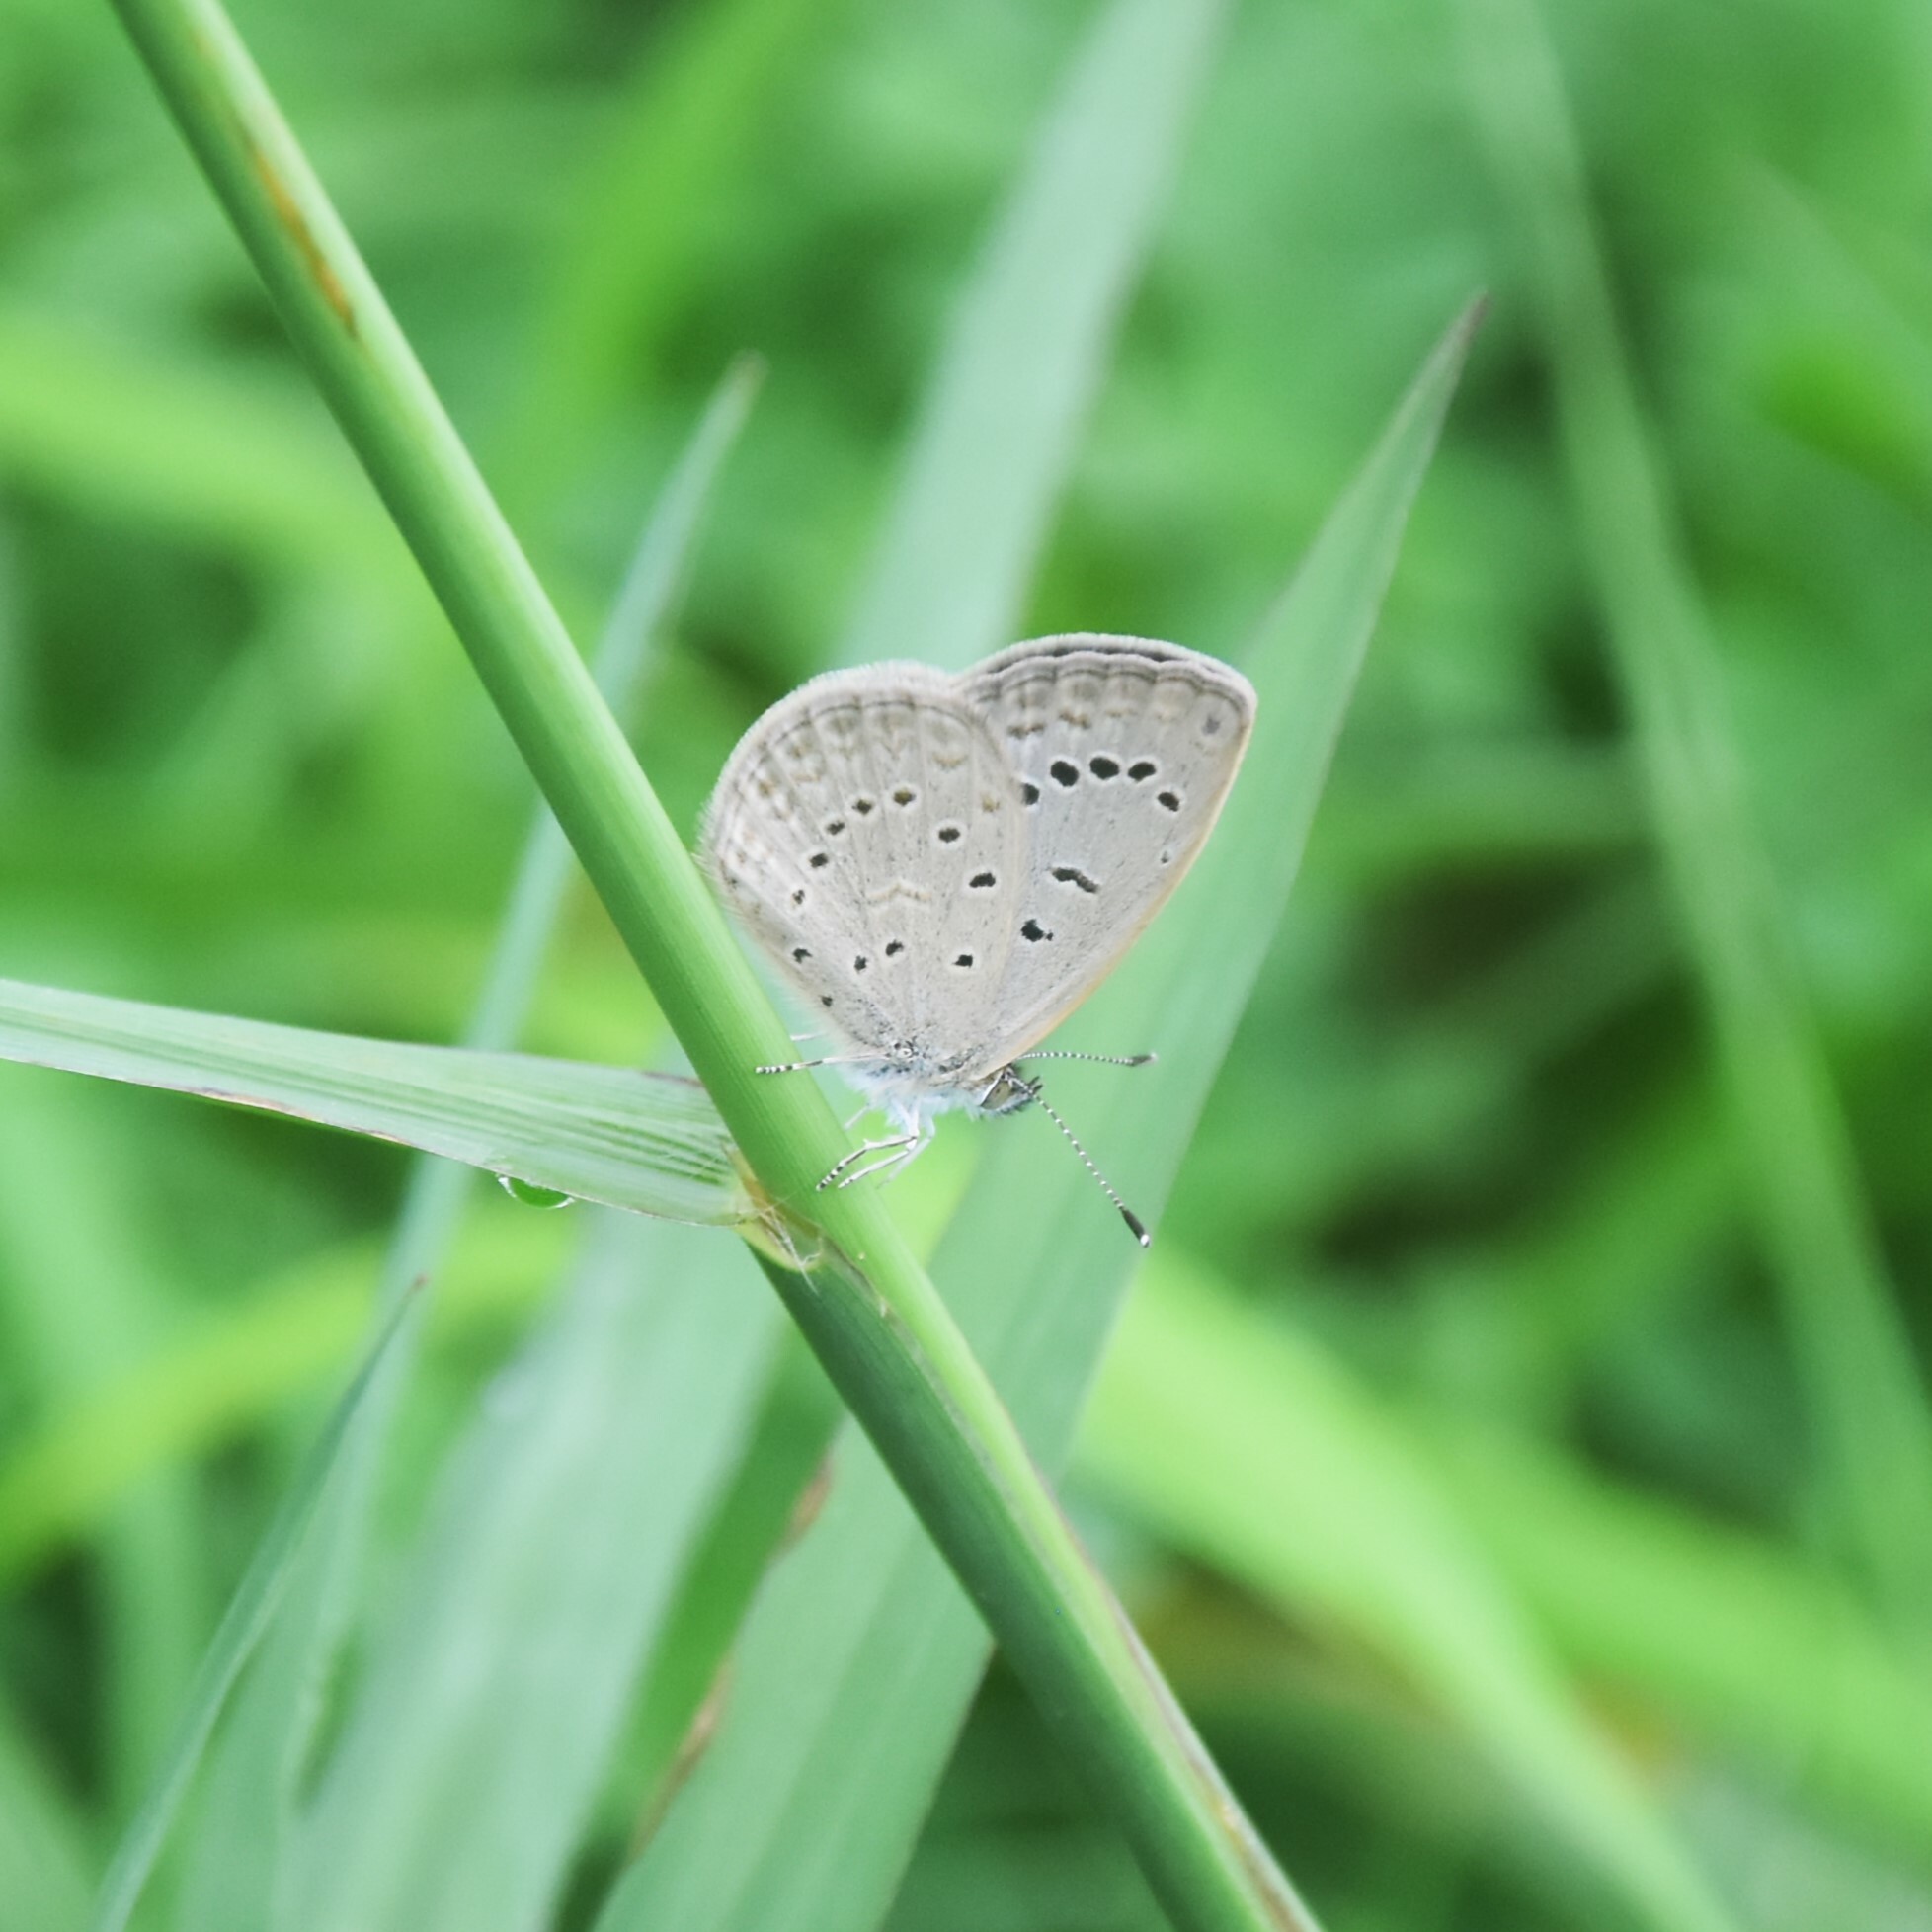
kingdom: Animalia
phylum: Arthropoda
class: Insecta
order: Lepidoptera
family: Lycaenidae
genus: Pseudozizeeria
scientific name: Pseudozizeeria maha
